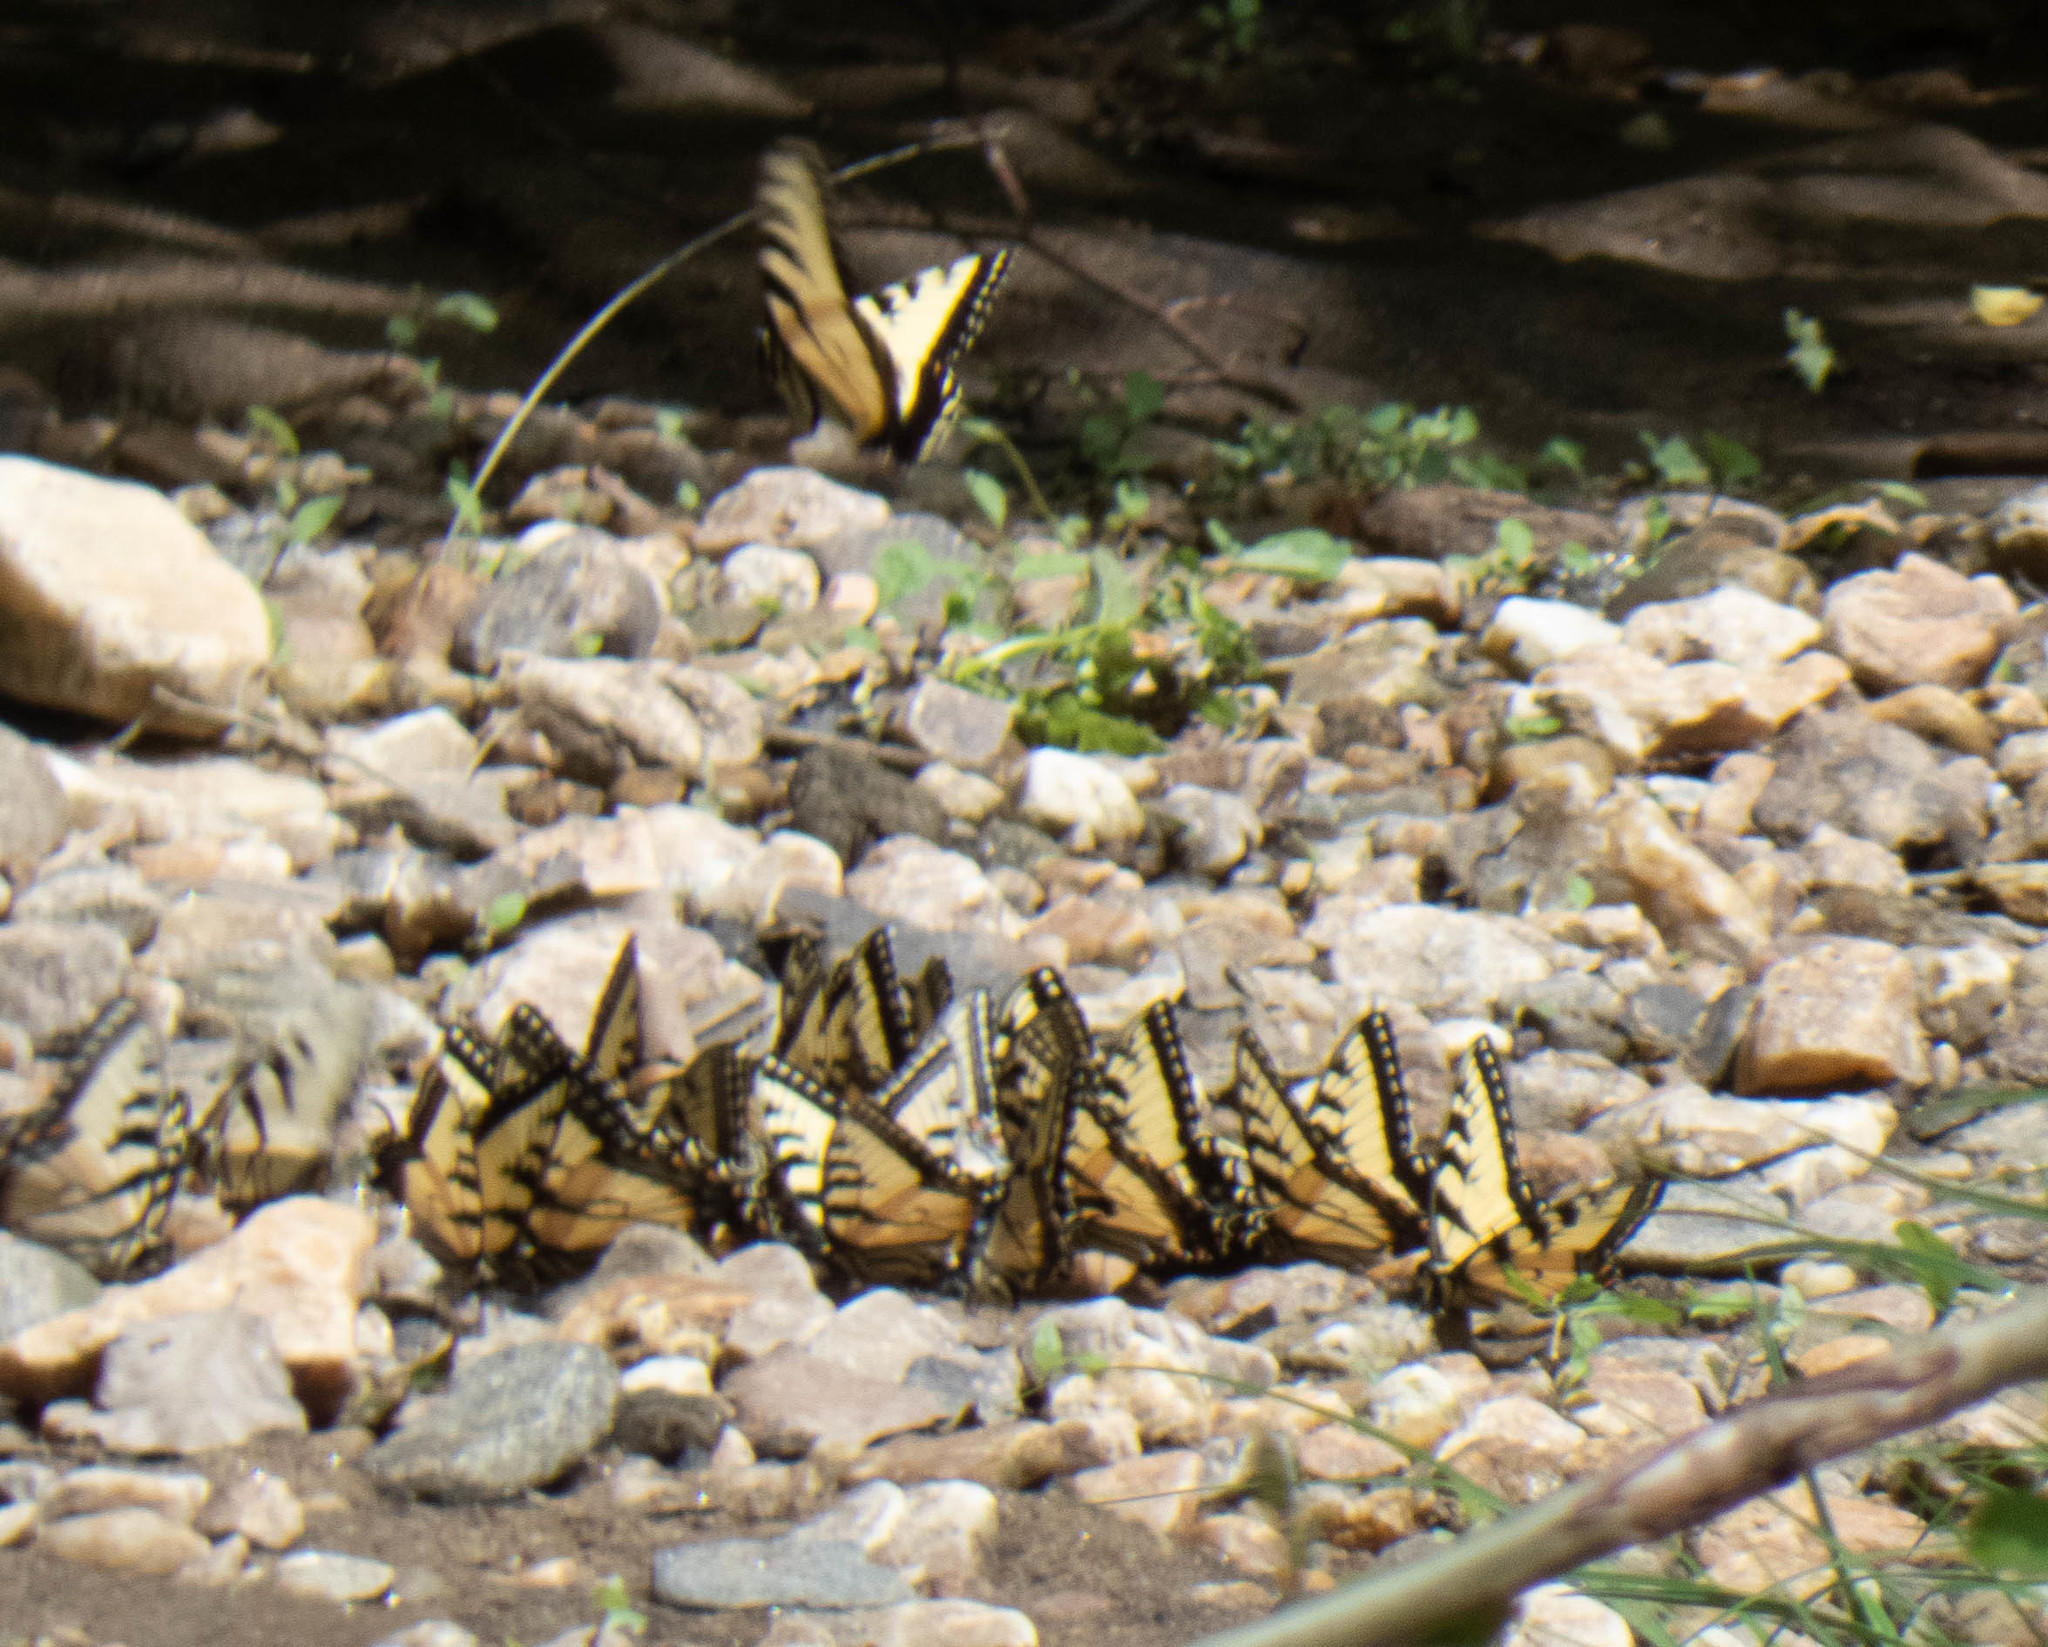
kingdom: Animalia
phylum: Arthropoda
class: Insecta
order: Lepidoptera
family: Papilionidae
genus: Papilio
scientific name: Papilio glaucus
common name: Tiger swallowtail
